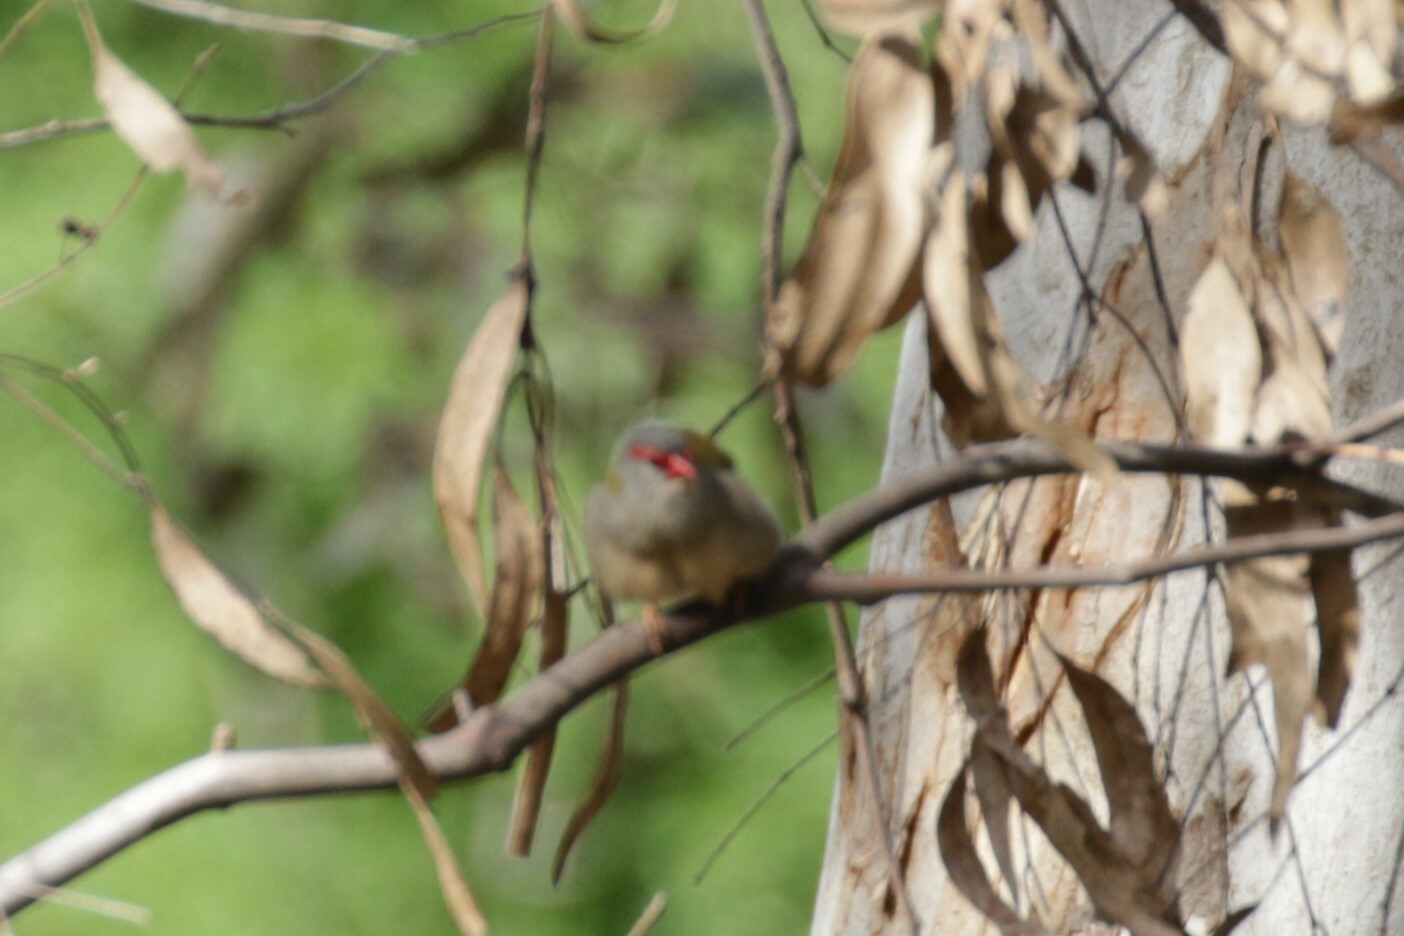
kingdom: Animalia
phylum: Chordata
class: Aves
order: Passeriformes
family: Estrildidae
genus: Neochmia
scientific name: Neochmia temporalis
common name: Red-browed finch
